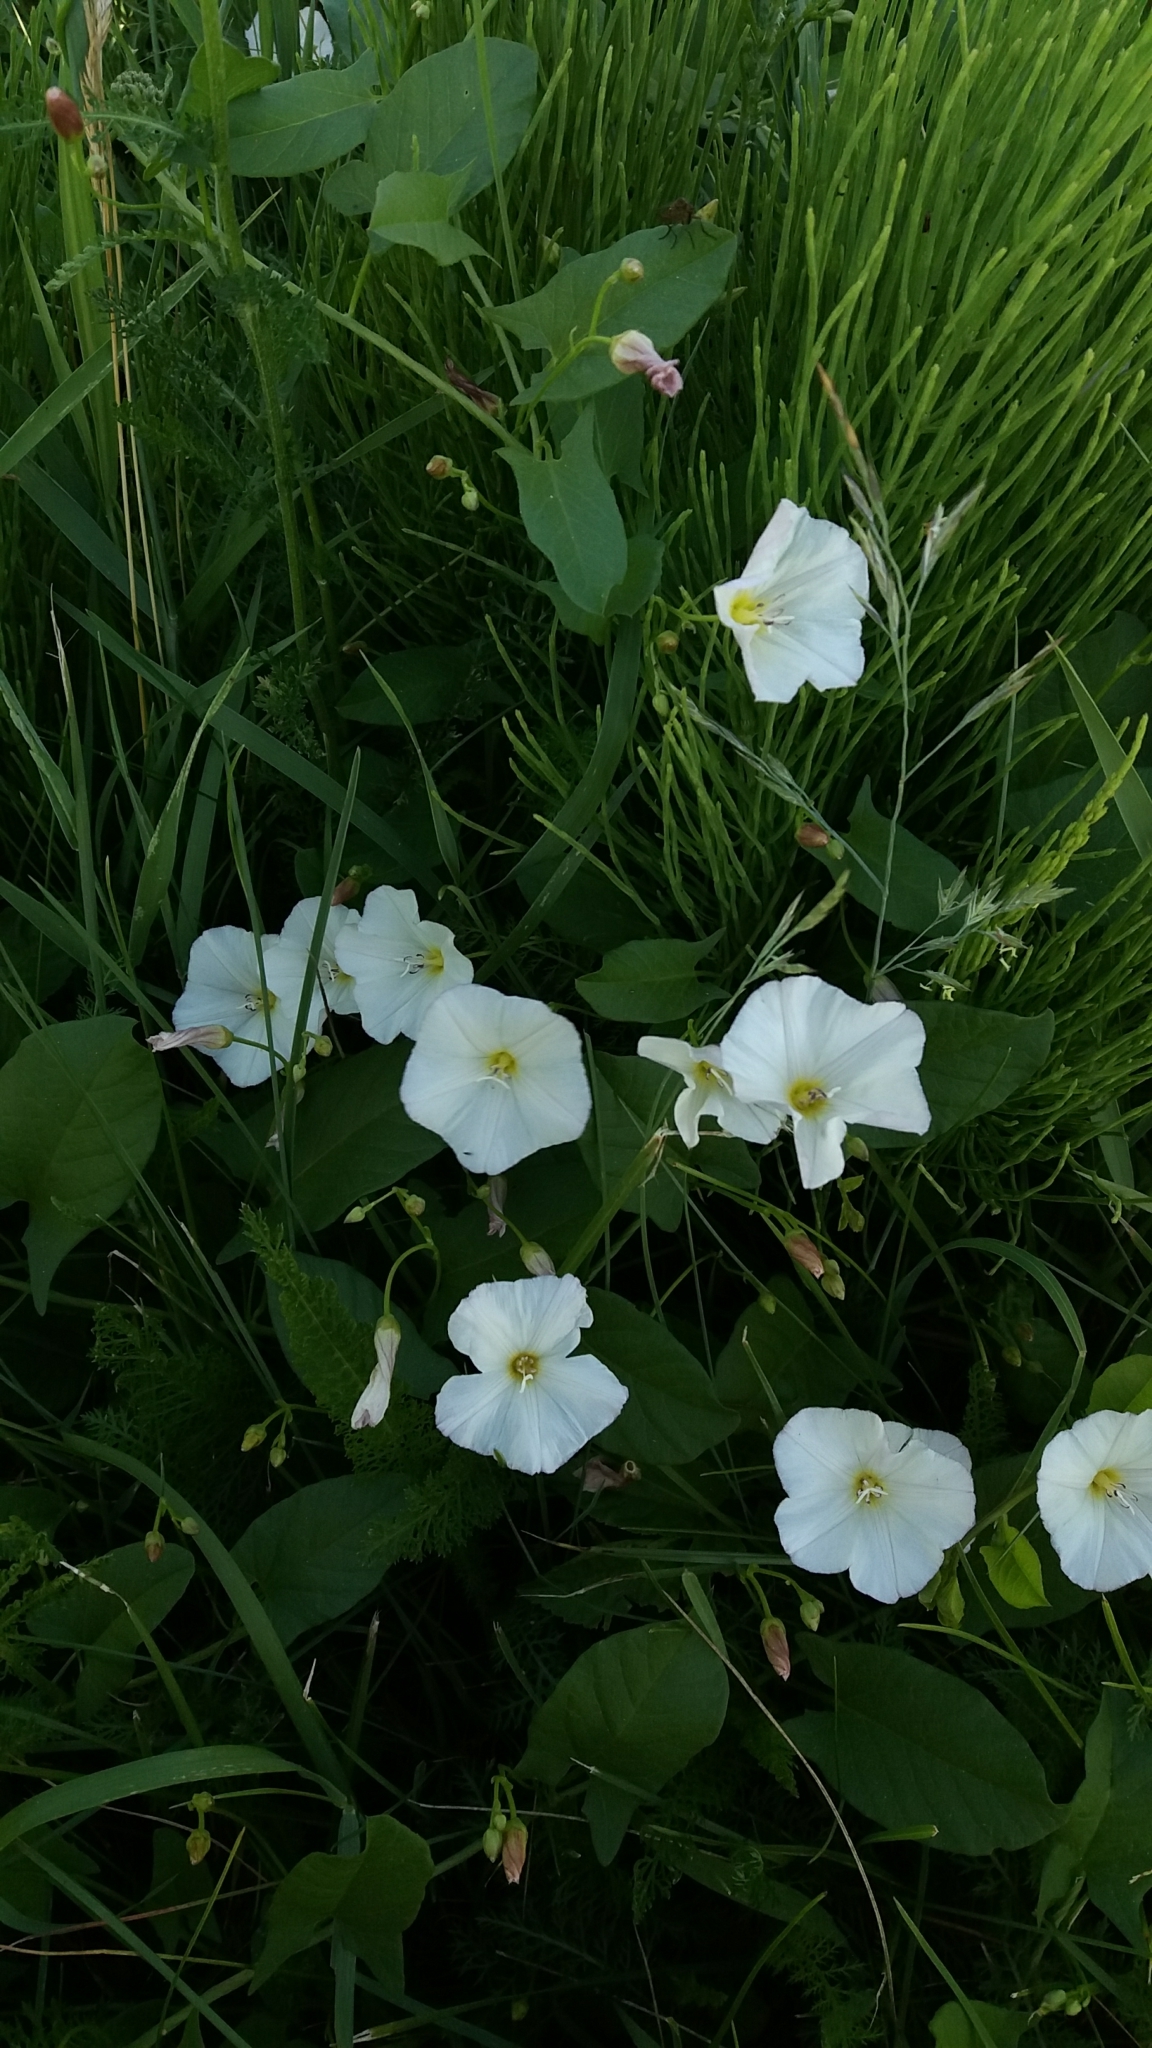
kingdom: Plantae
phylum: Tracheophyta
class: Magnoliopsida
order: Solanales
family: Convolvulaceae
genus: Convolvulus
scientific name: Convolvulus arvensis
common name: Field bindweed
